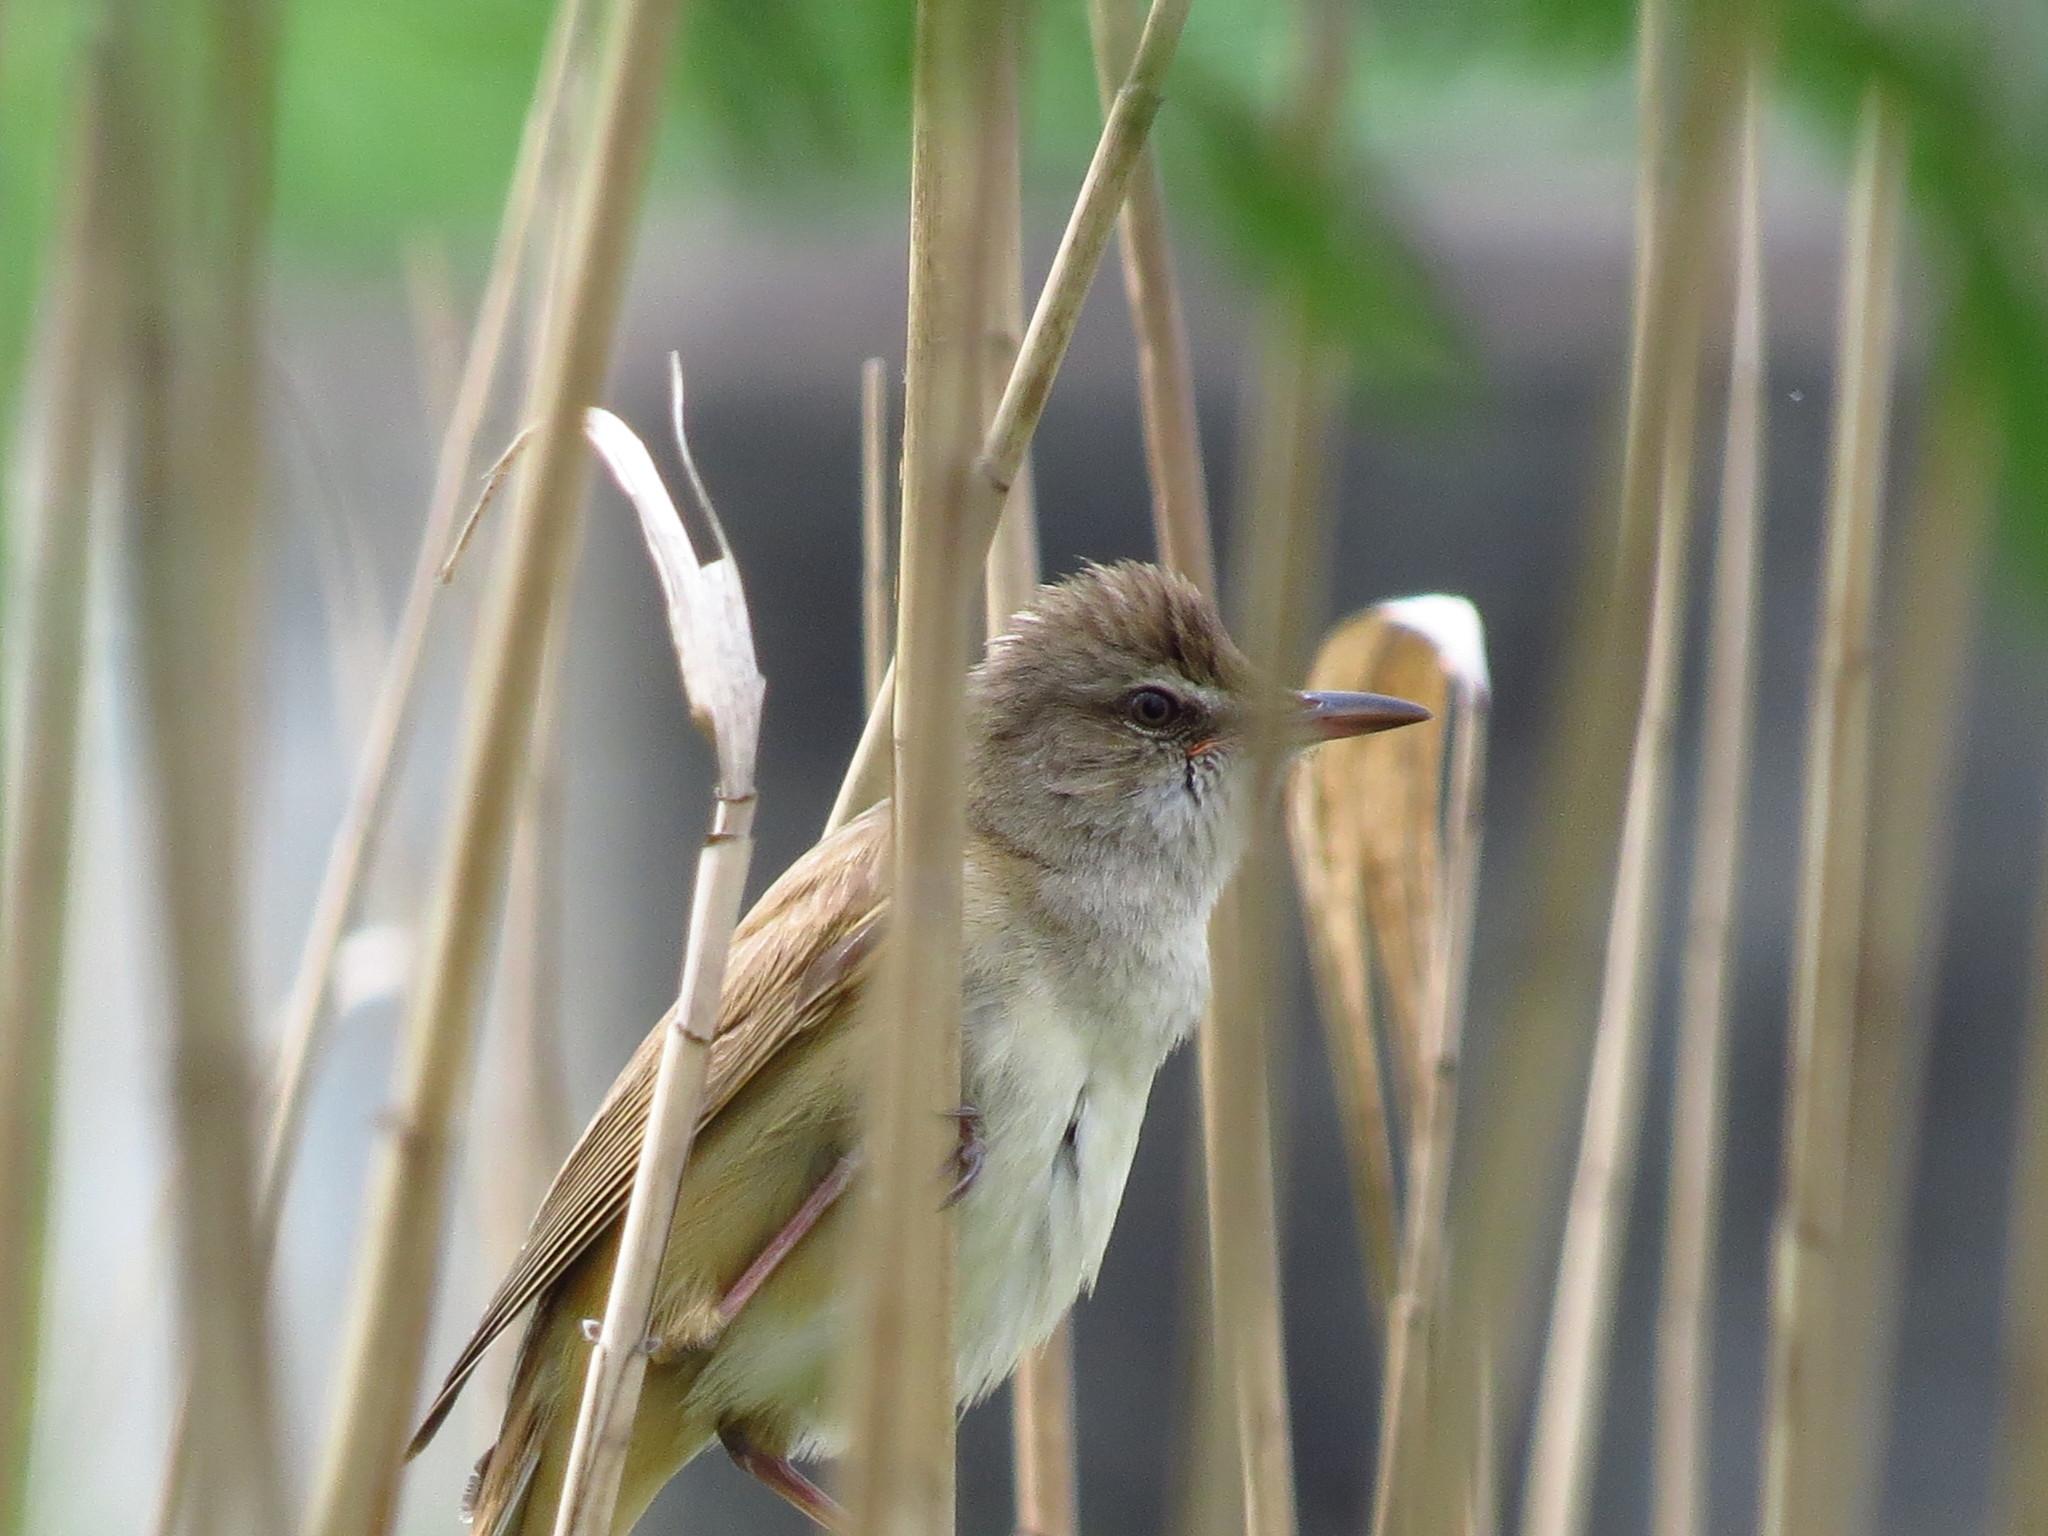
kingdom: Animalia
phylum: Chordata
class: Aves
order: Passeriformes
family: Acrocephalidae
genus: Acrocephalus
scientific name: Acrocephalus arundinaceus
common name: Great reed warbler
